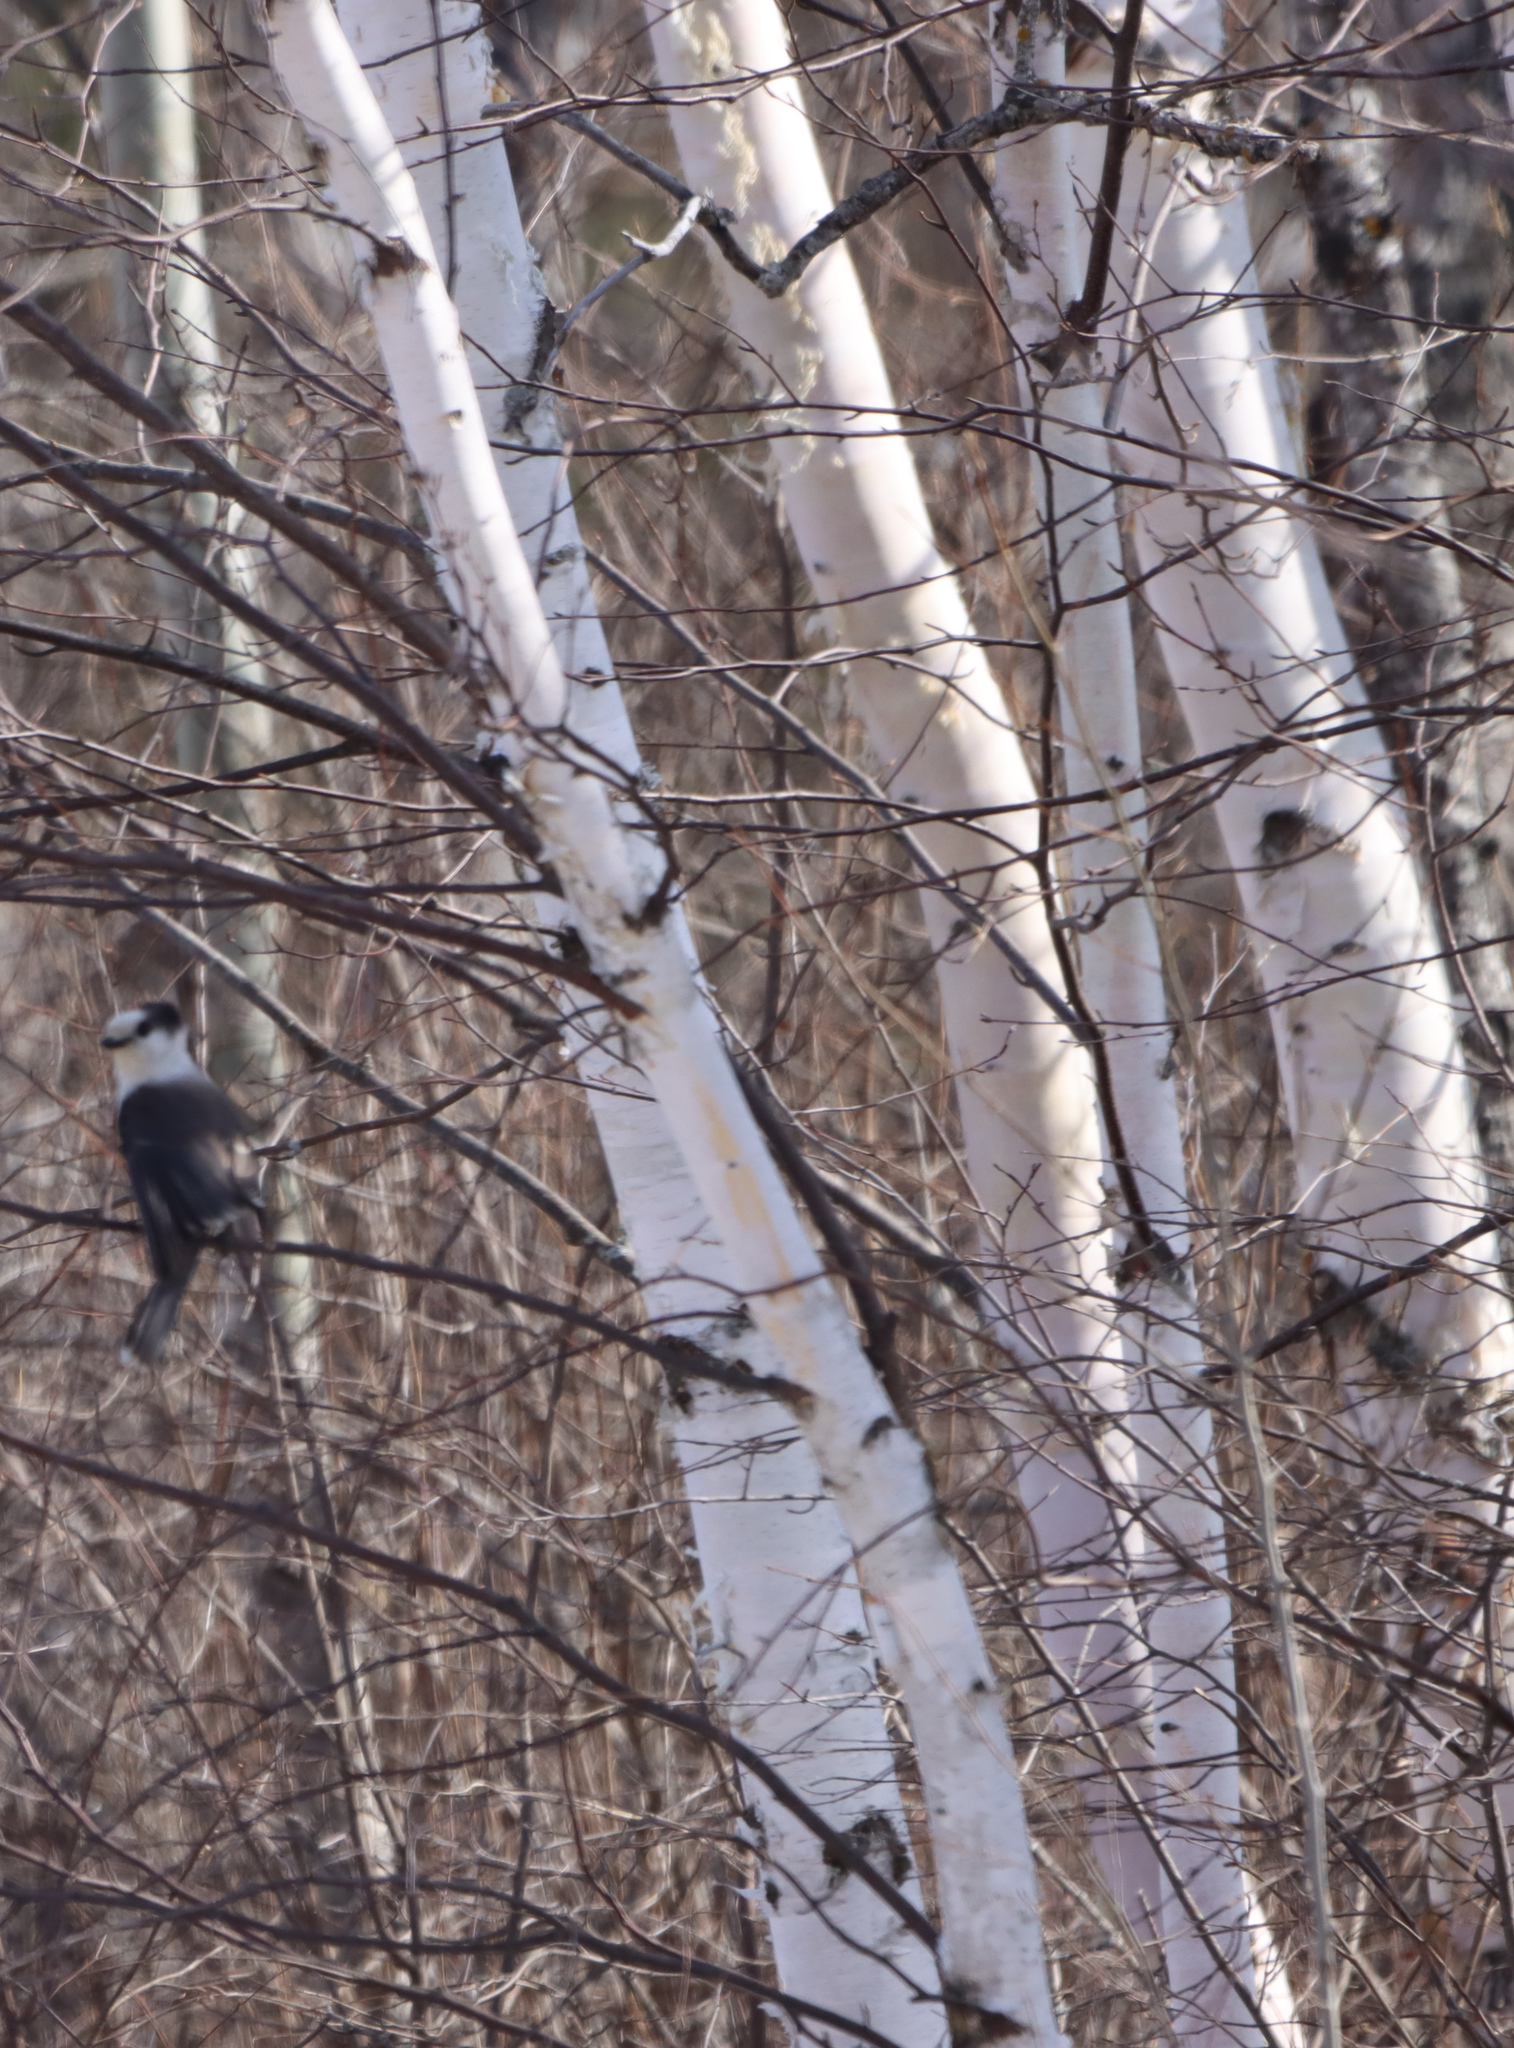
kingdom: Plantae
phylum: Tracheophyta
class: Magnoliopsida
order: Fagales
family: Betulaceae
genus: Betula
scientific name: Betula papyrifera
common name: Paper birch
